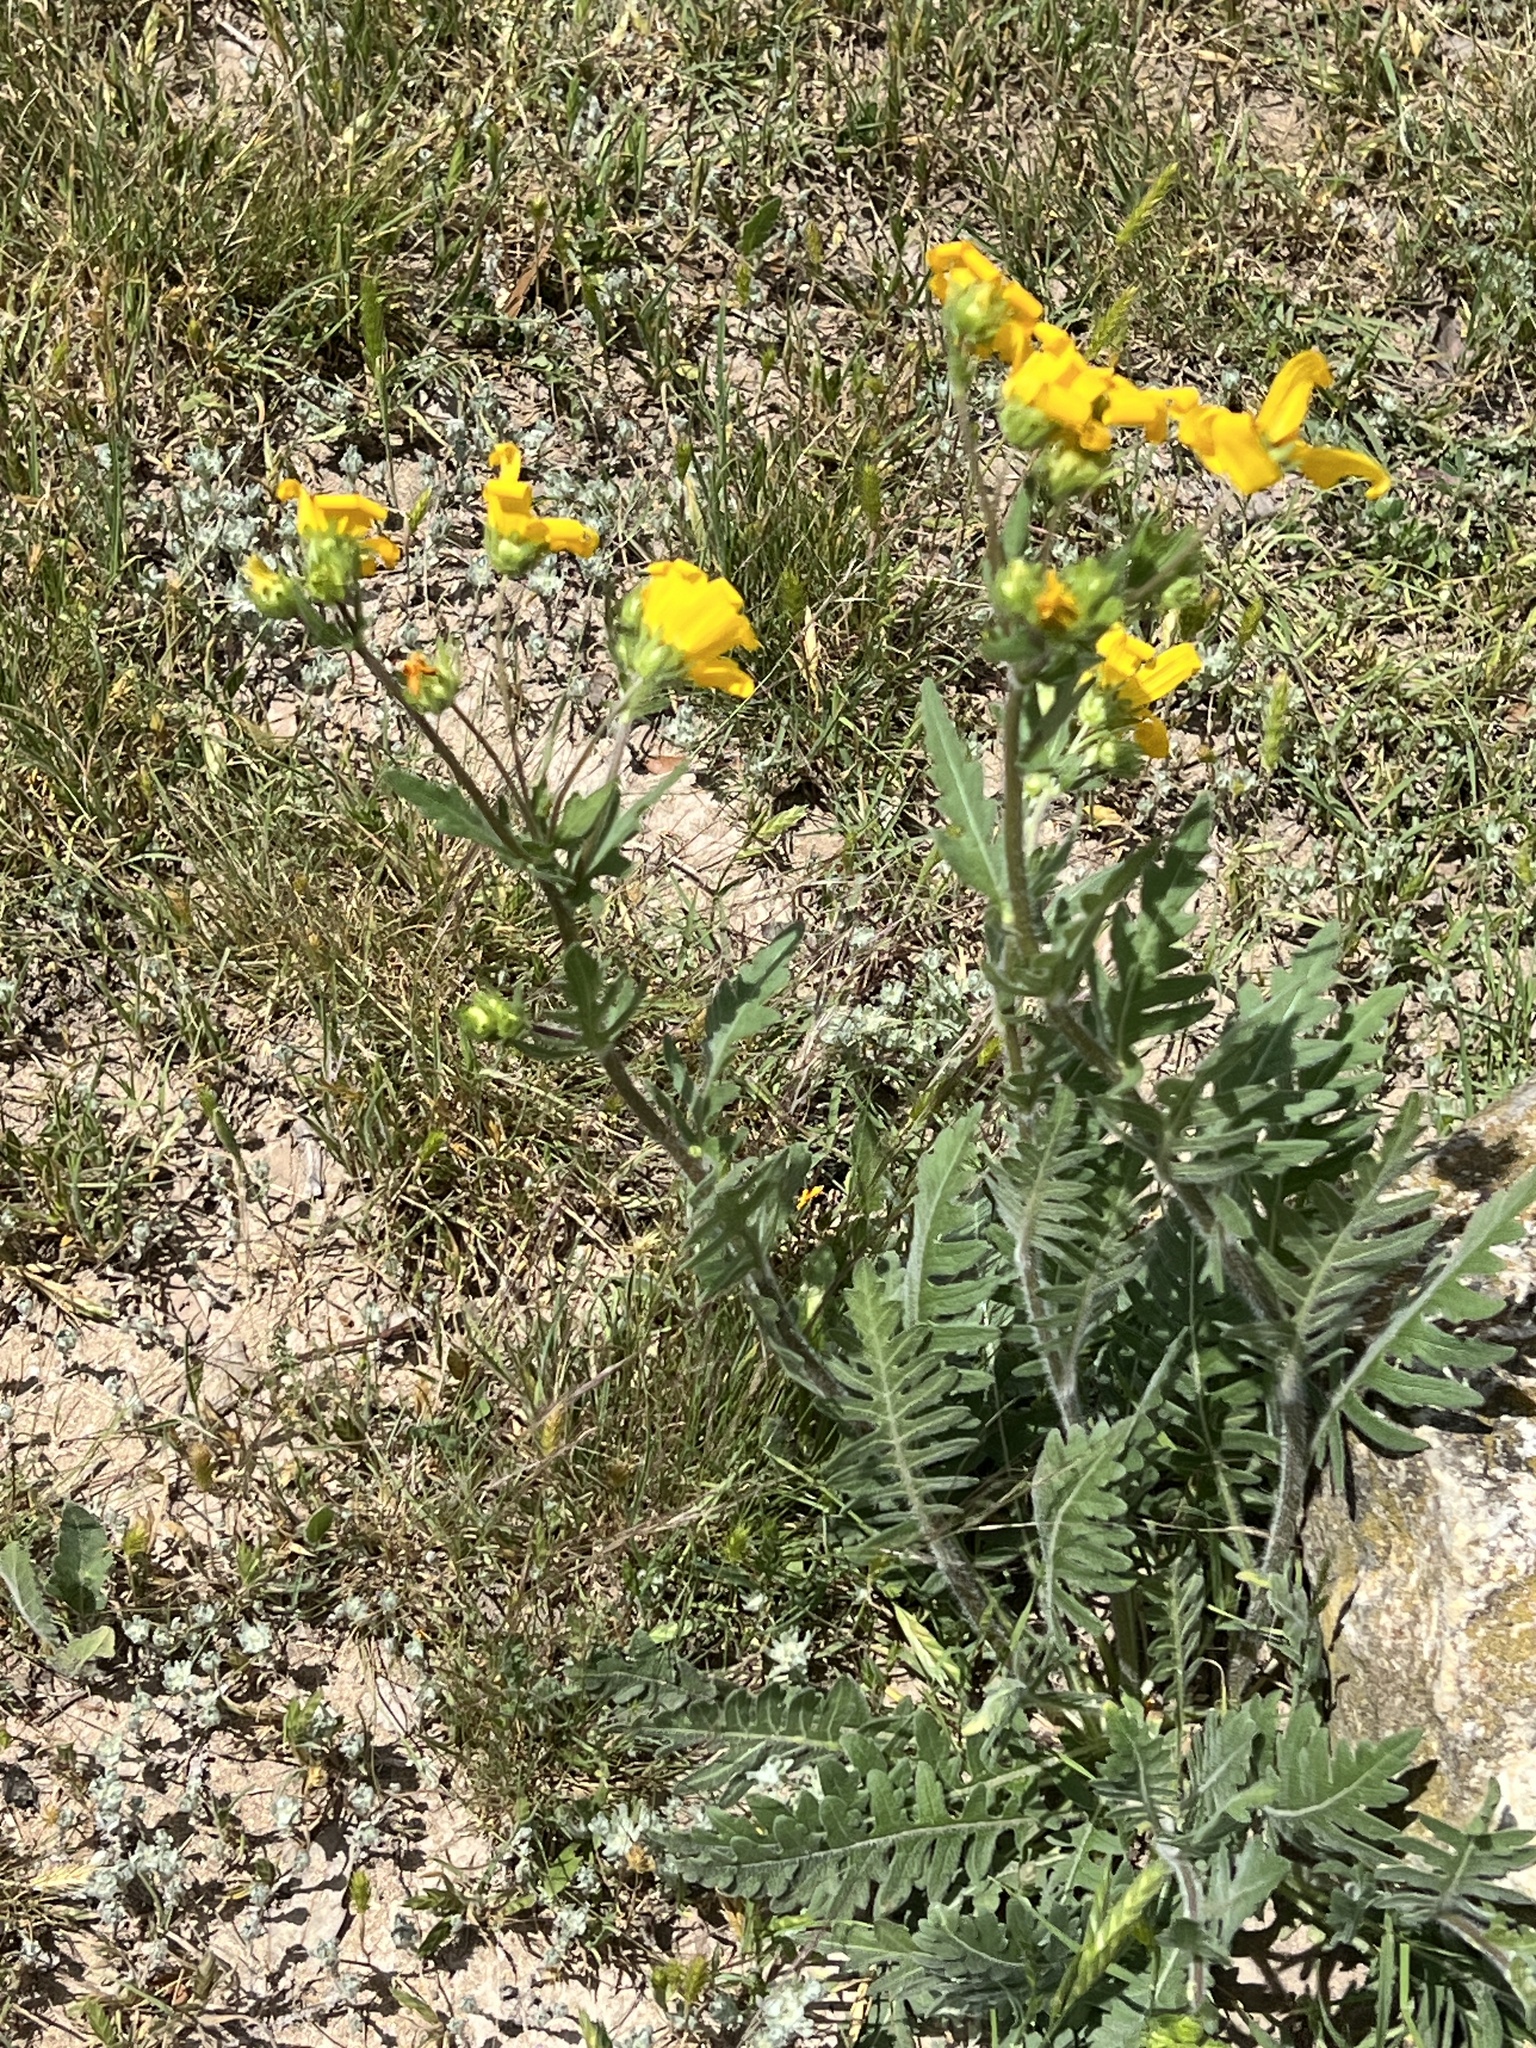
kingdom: Plantae
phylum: Tracheophyta
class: Magnoliopsida
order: Asterales
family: Asteraceae
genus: Engelmannia
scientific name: Engelmannia peristenia
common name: Engelmann's daisy
